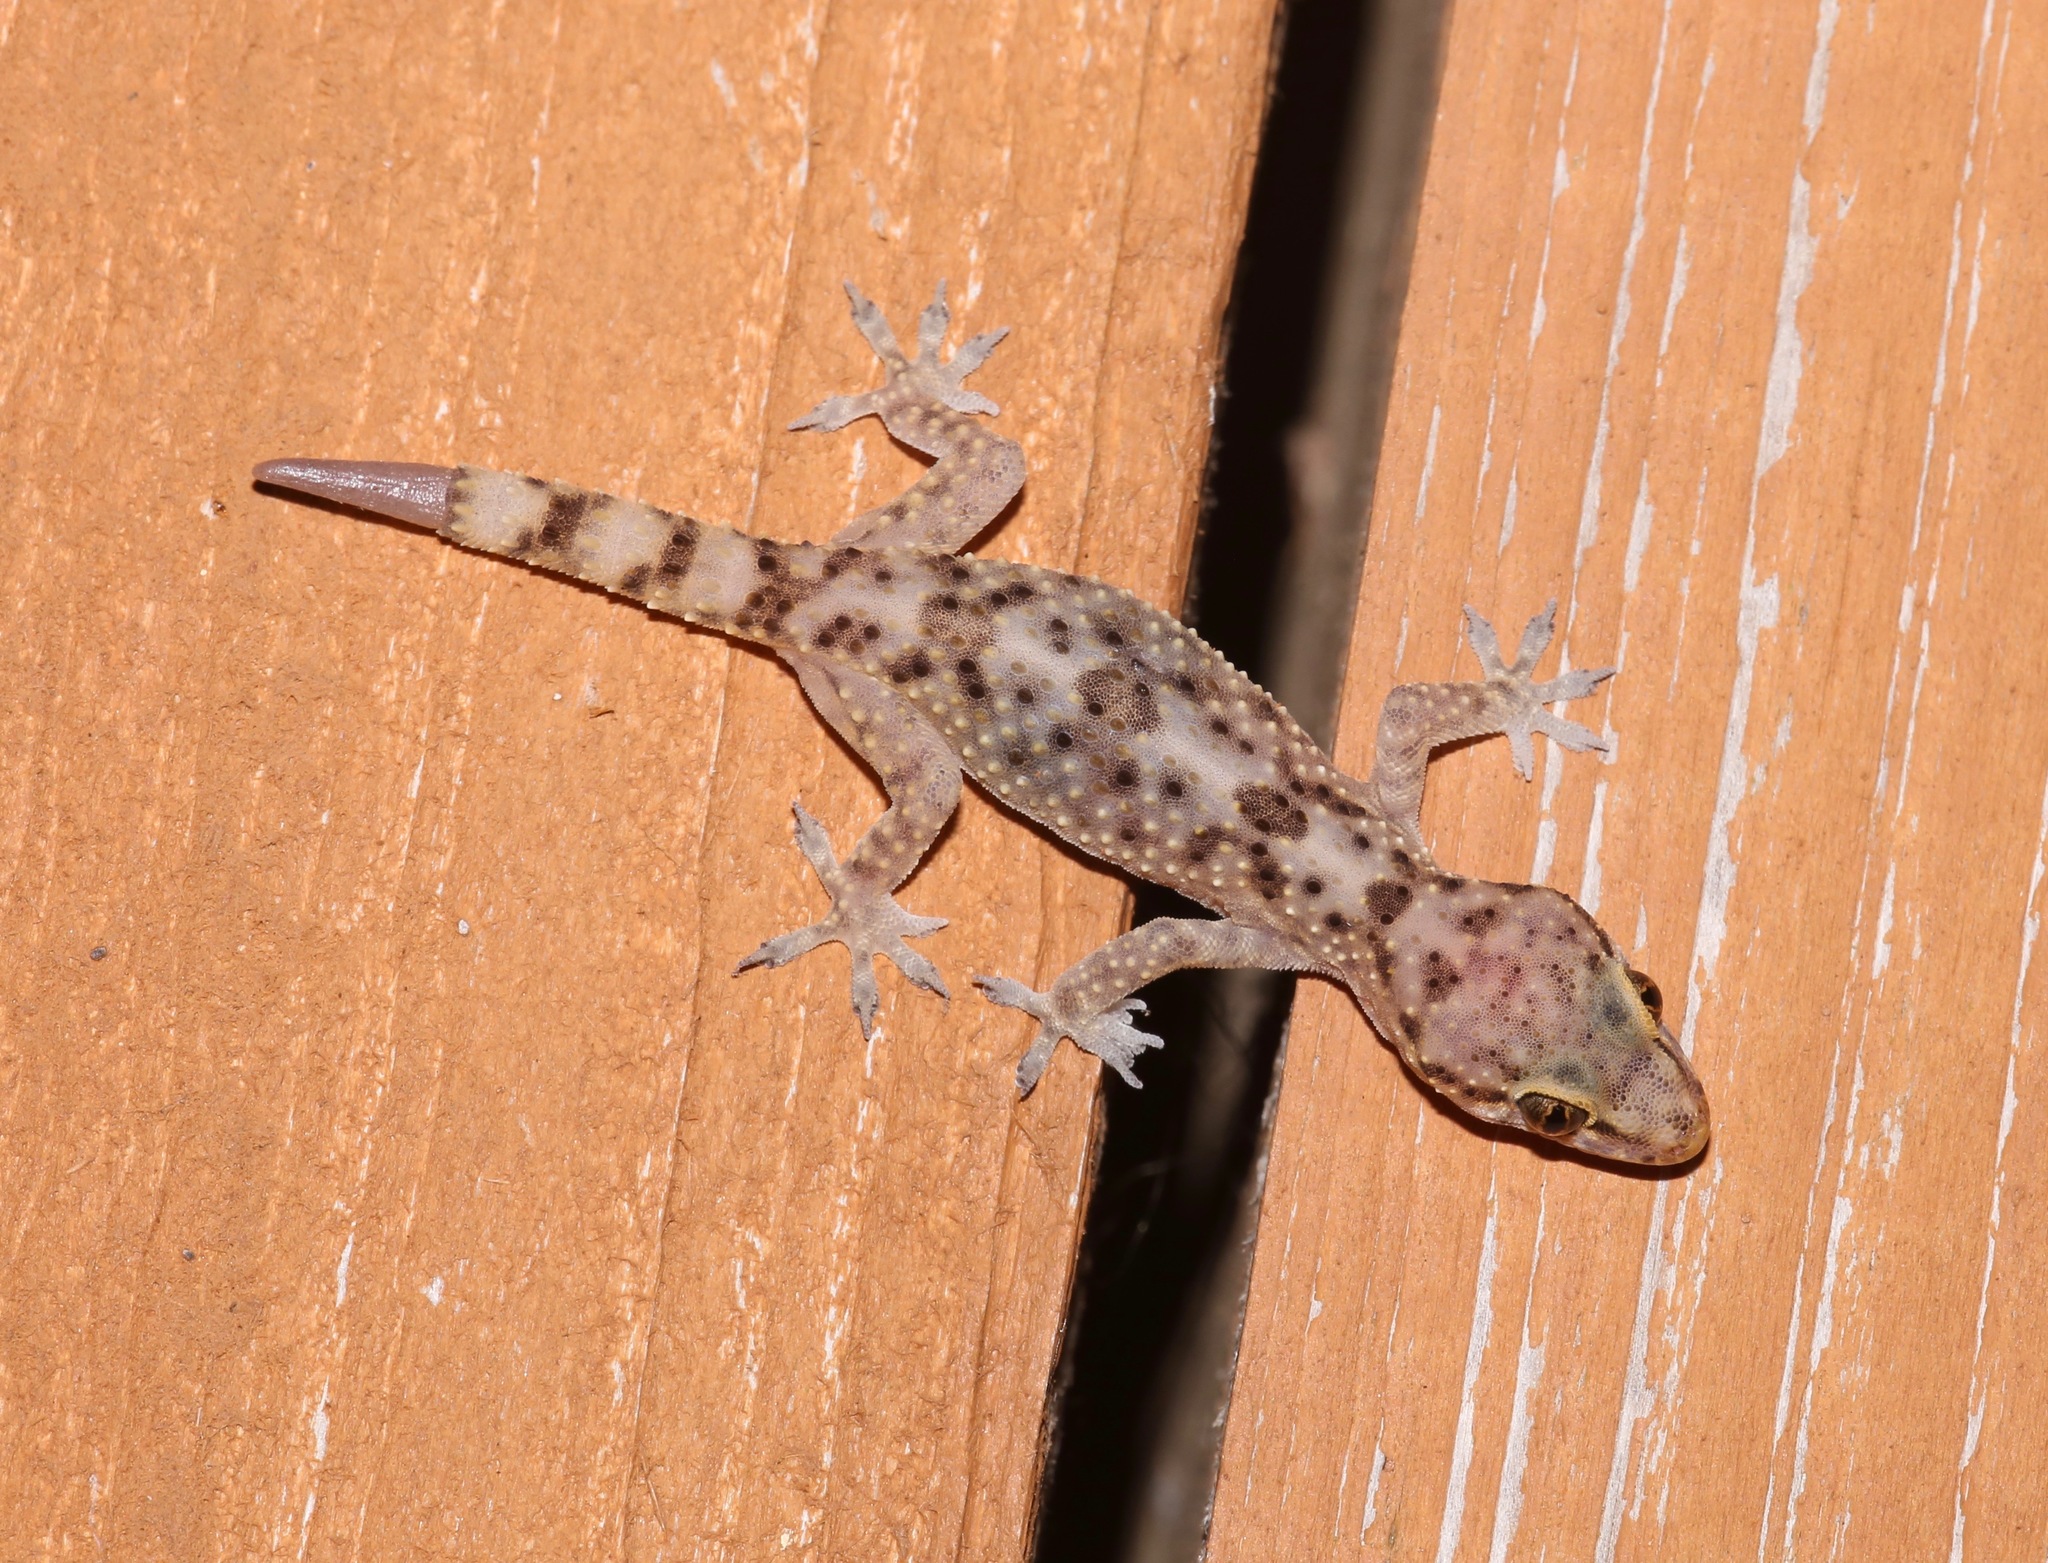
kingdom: Animalia
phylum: Chordata
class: Squamata
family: Gekkonidae
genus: Hemidactylus
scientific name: Hemidactylus turcicus
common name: Turkish gecko
